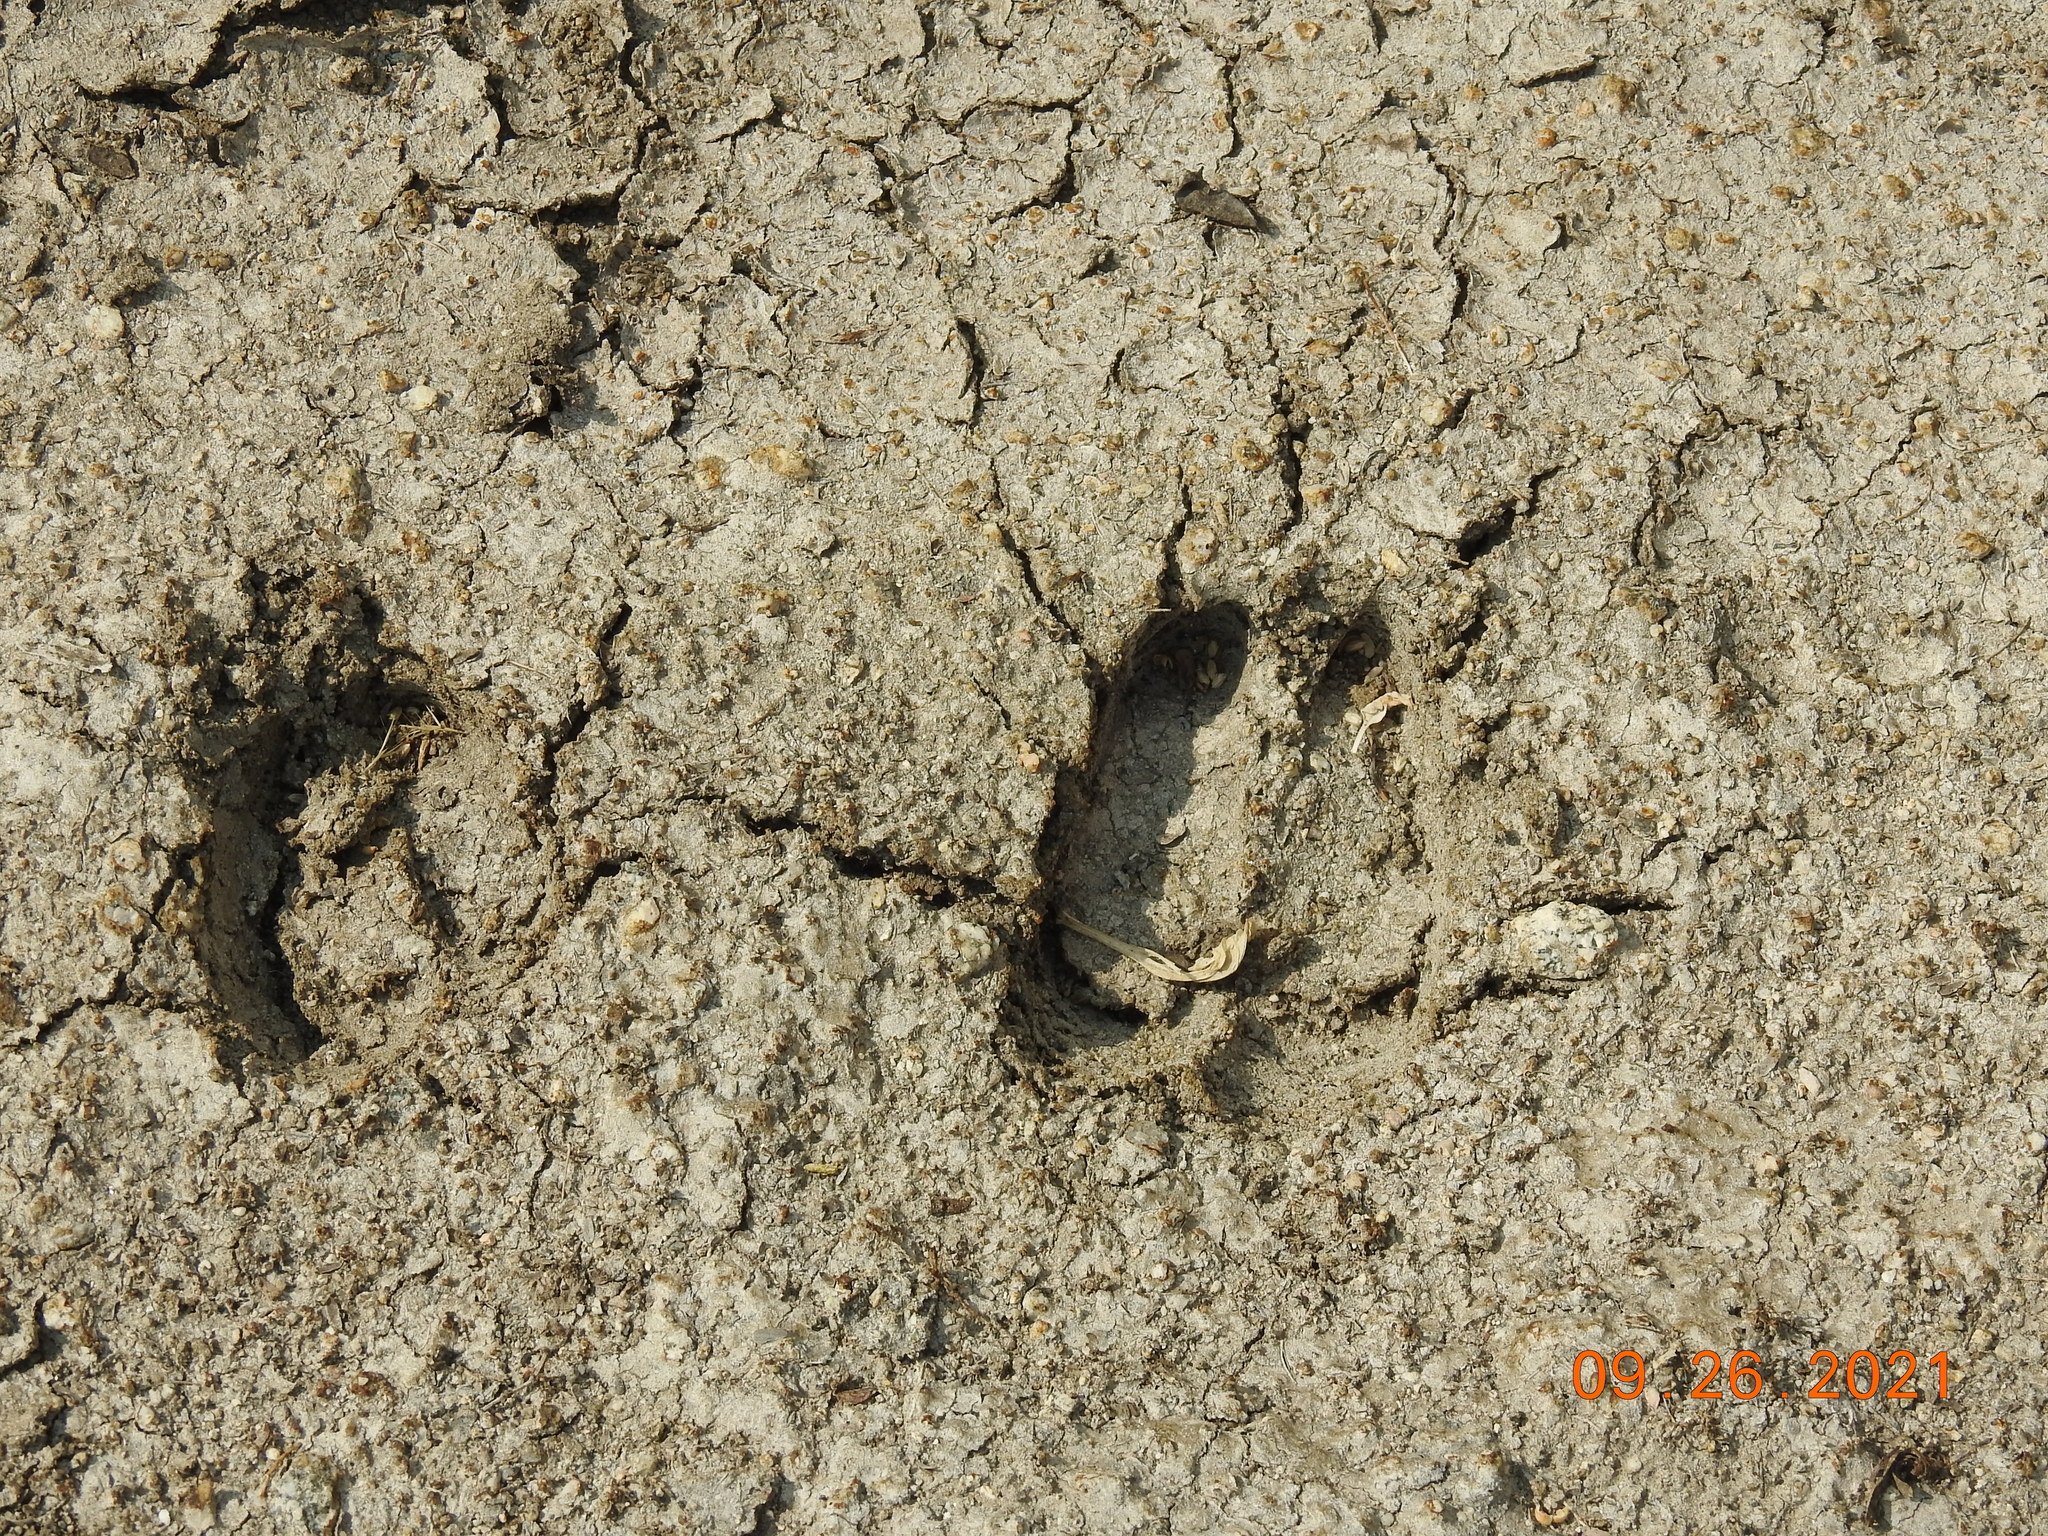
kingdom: Animalia
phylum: Chordata
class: Mammalia
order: Artiodactyla
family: Bovidae
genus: Ovis
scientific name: Ovis canadensis
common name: Bighorn sheep
